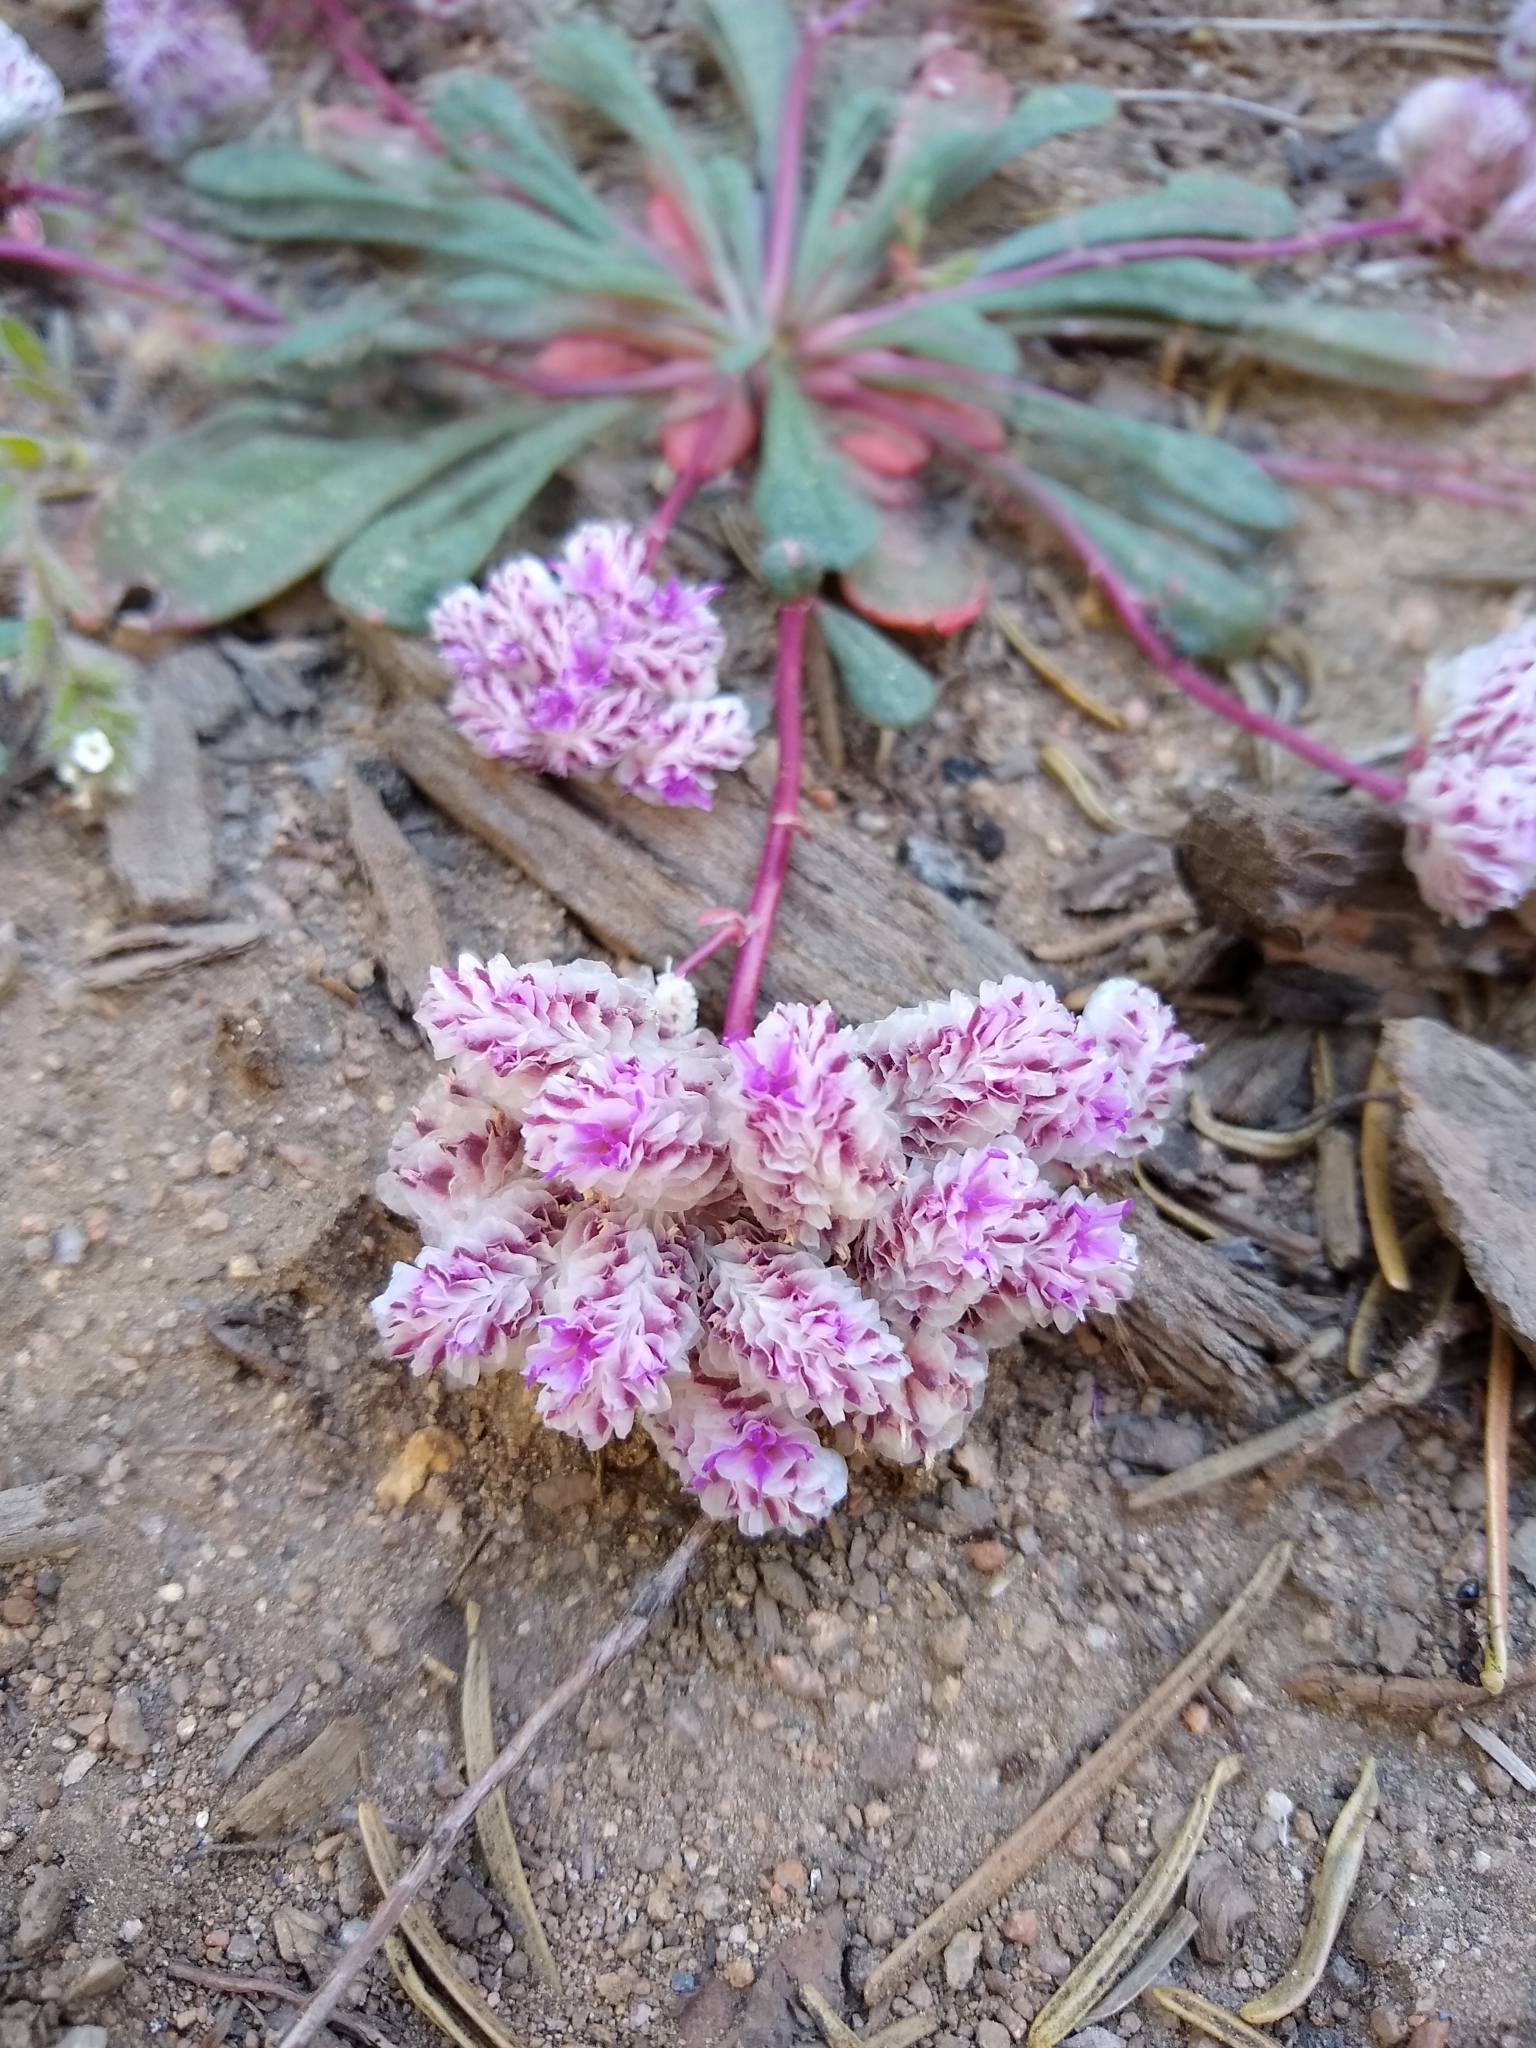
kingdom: Plantae
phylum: Tracheophyta
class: Magnoliopsida
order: Caryophyllales
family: Montiaceae
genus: Calyptridium
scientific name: Calyptridium monospermum
